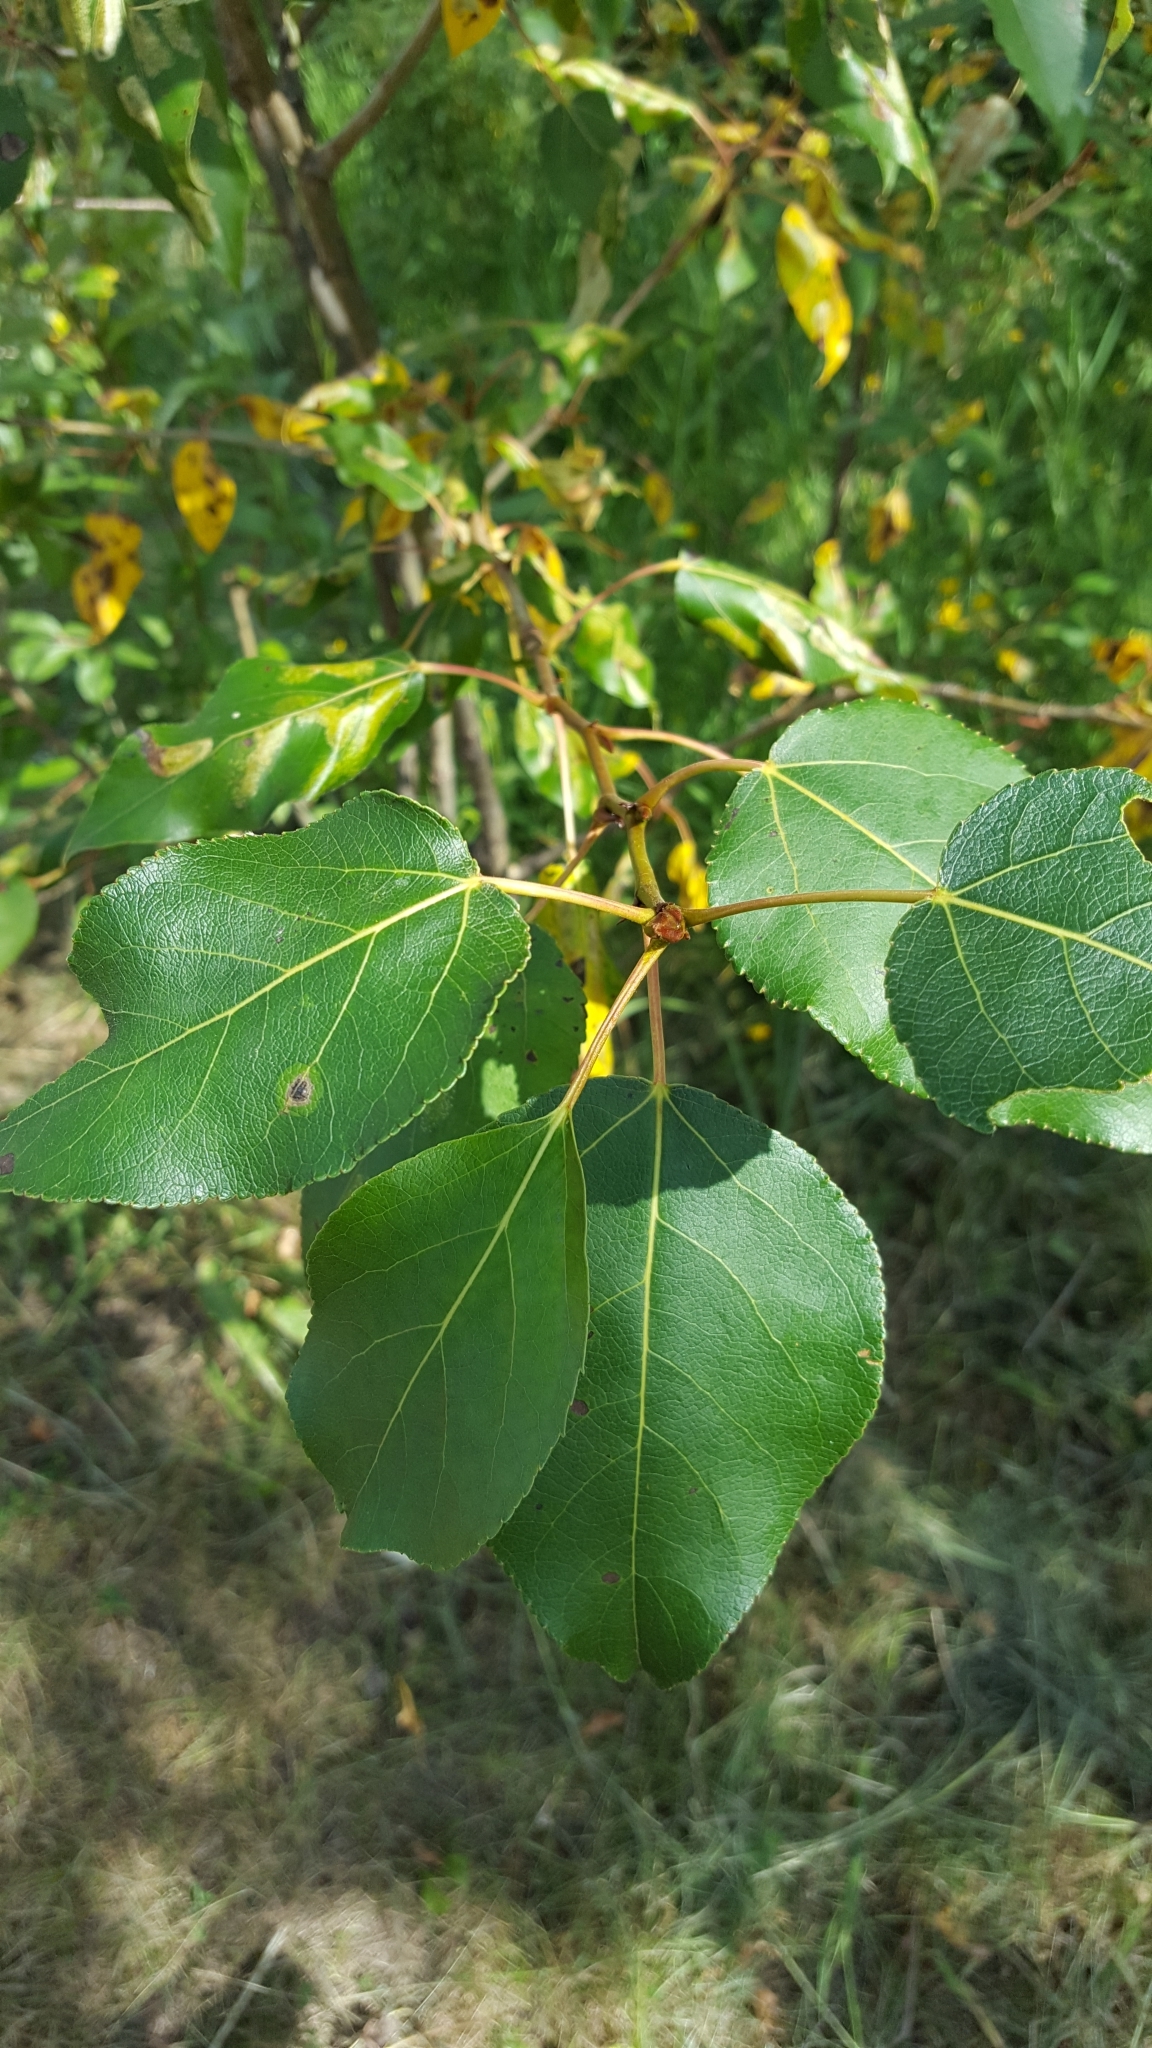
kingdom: Plantae
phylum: Tracheophyta
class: Magnoliopsida
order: Malpighiales
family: Salicaceae
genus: Populus
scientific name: Populus balsamifera
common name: Balsam poplar
